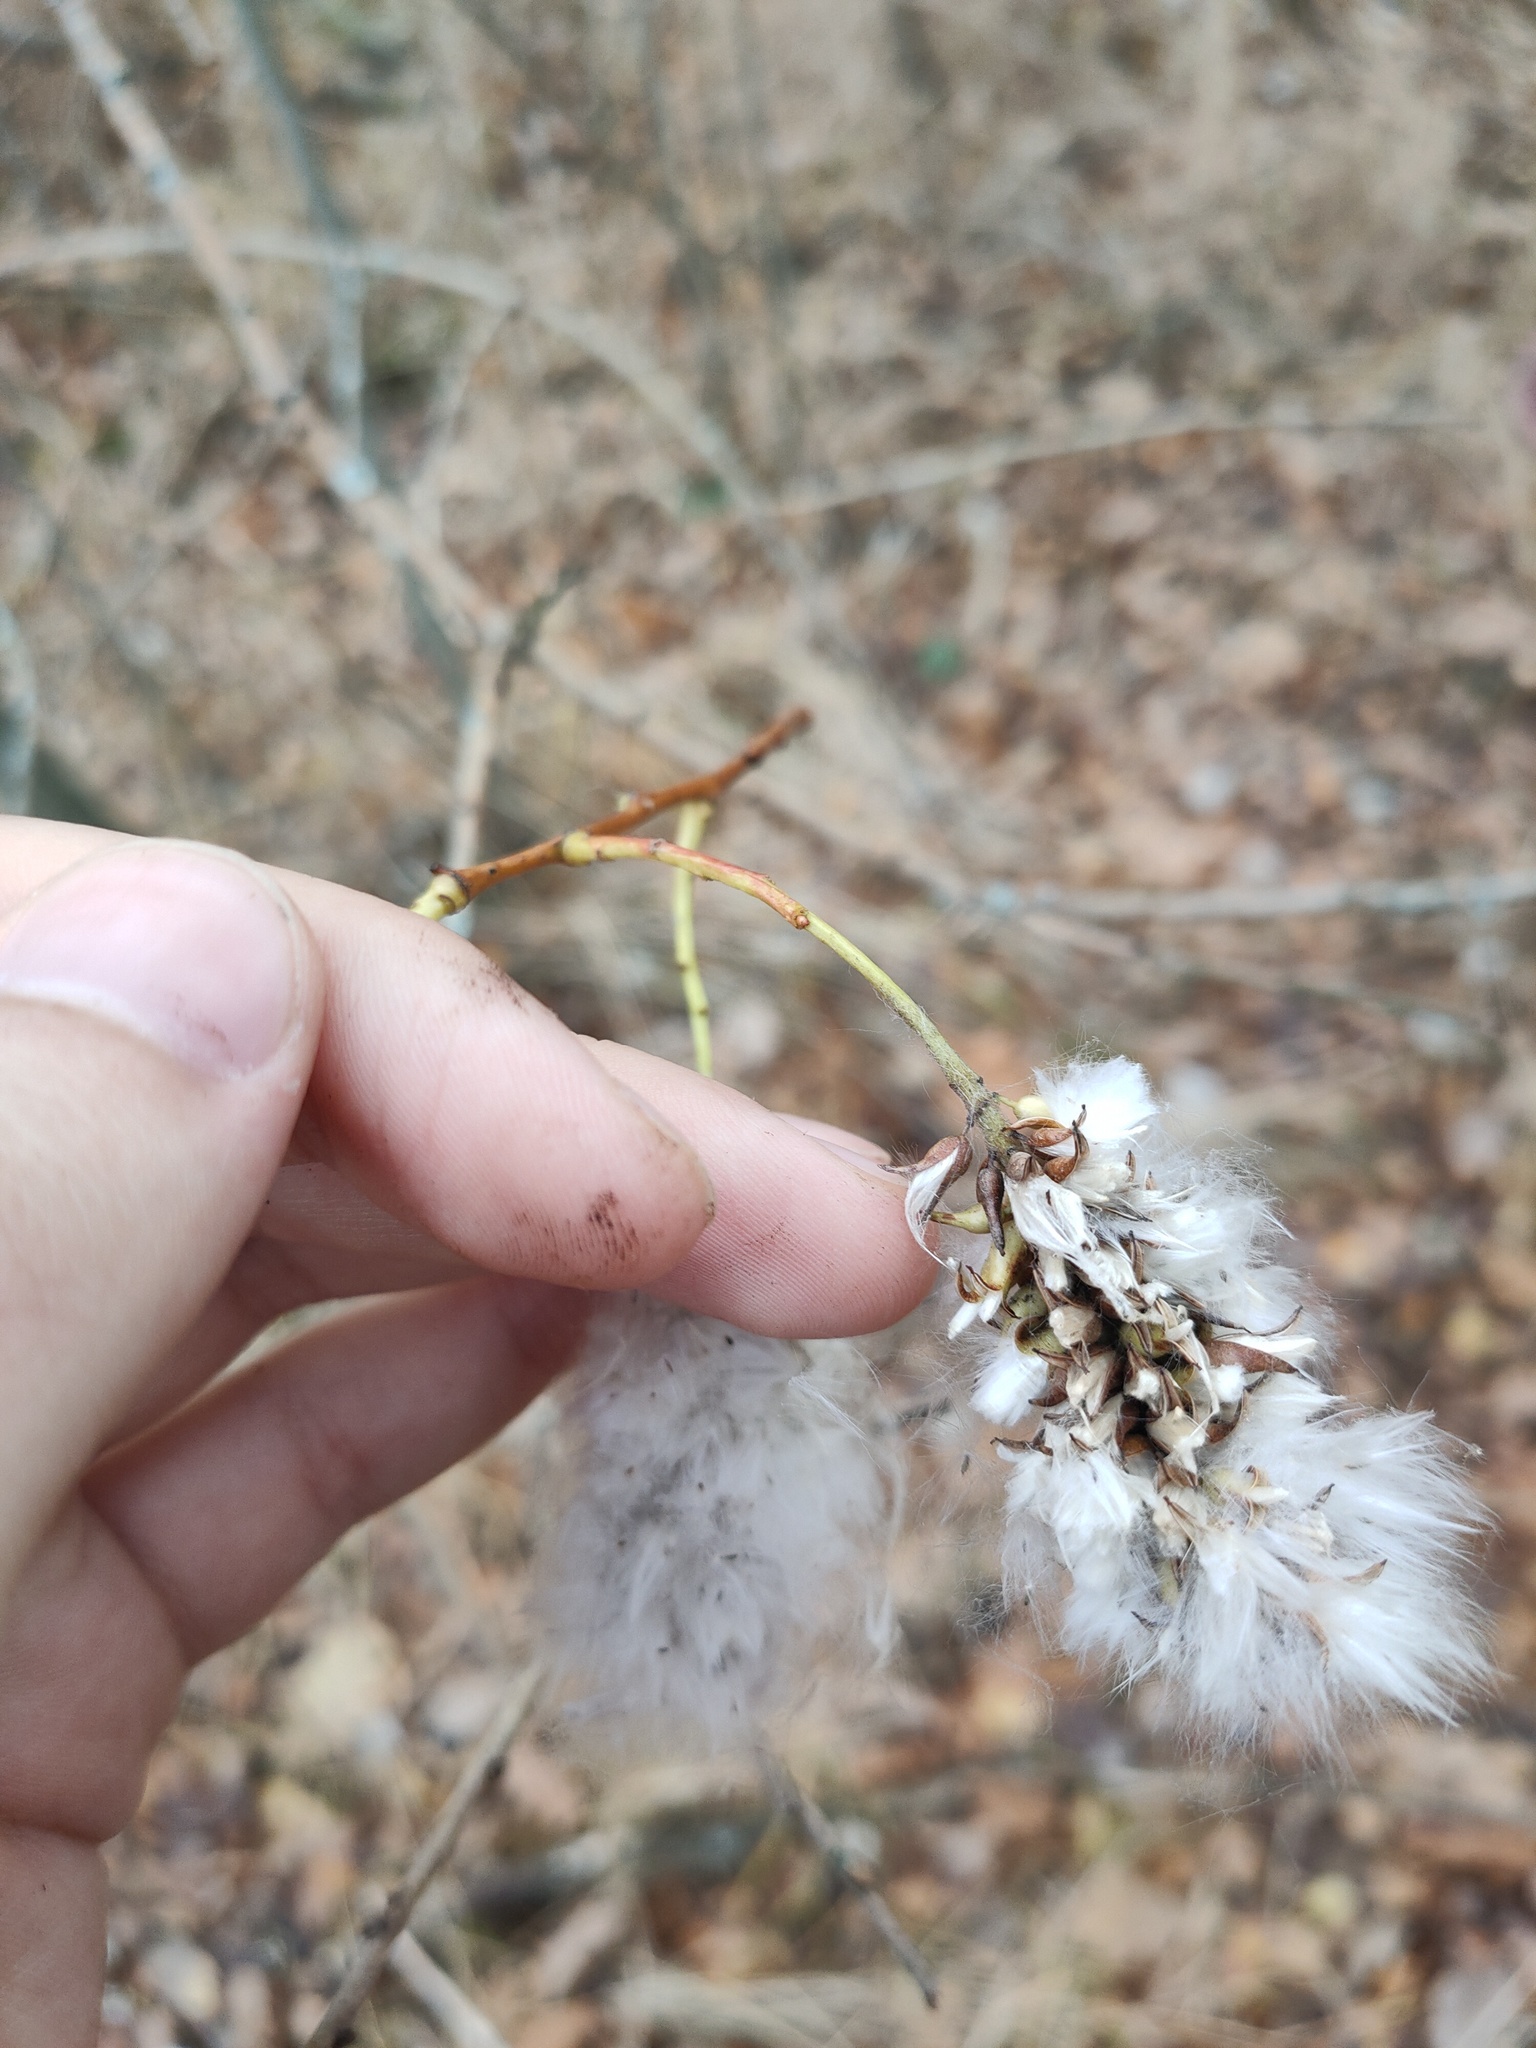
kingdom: Plantae
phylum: Tracheophyta
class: Magnoliopsida
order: Malpighiales
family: Salicaceae
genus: Salix
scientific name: Salix pentandra
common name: Bay willow
